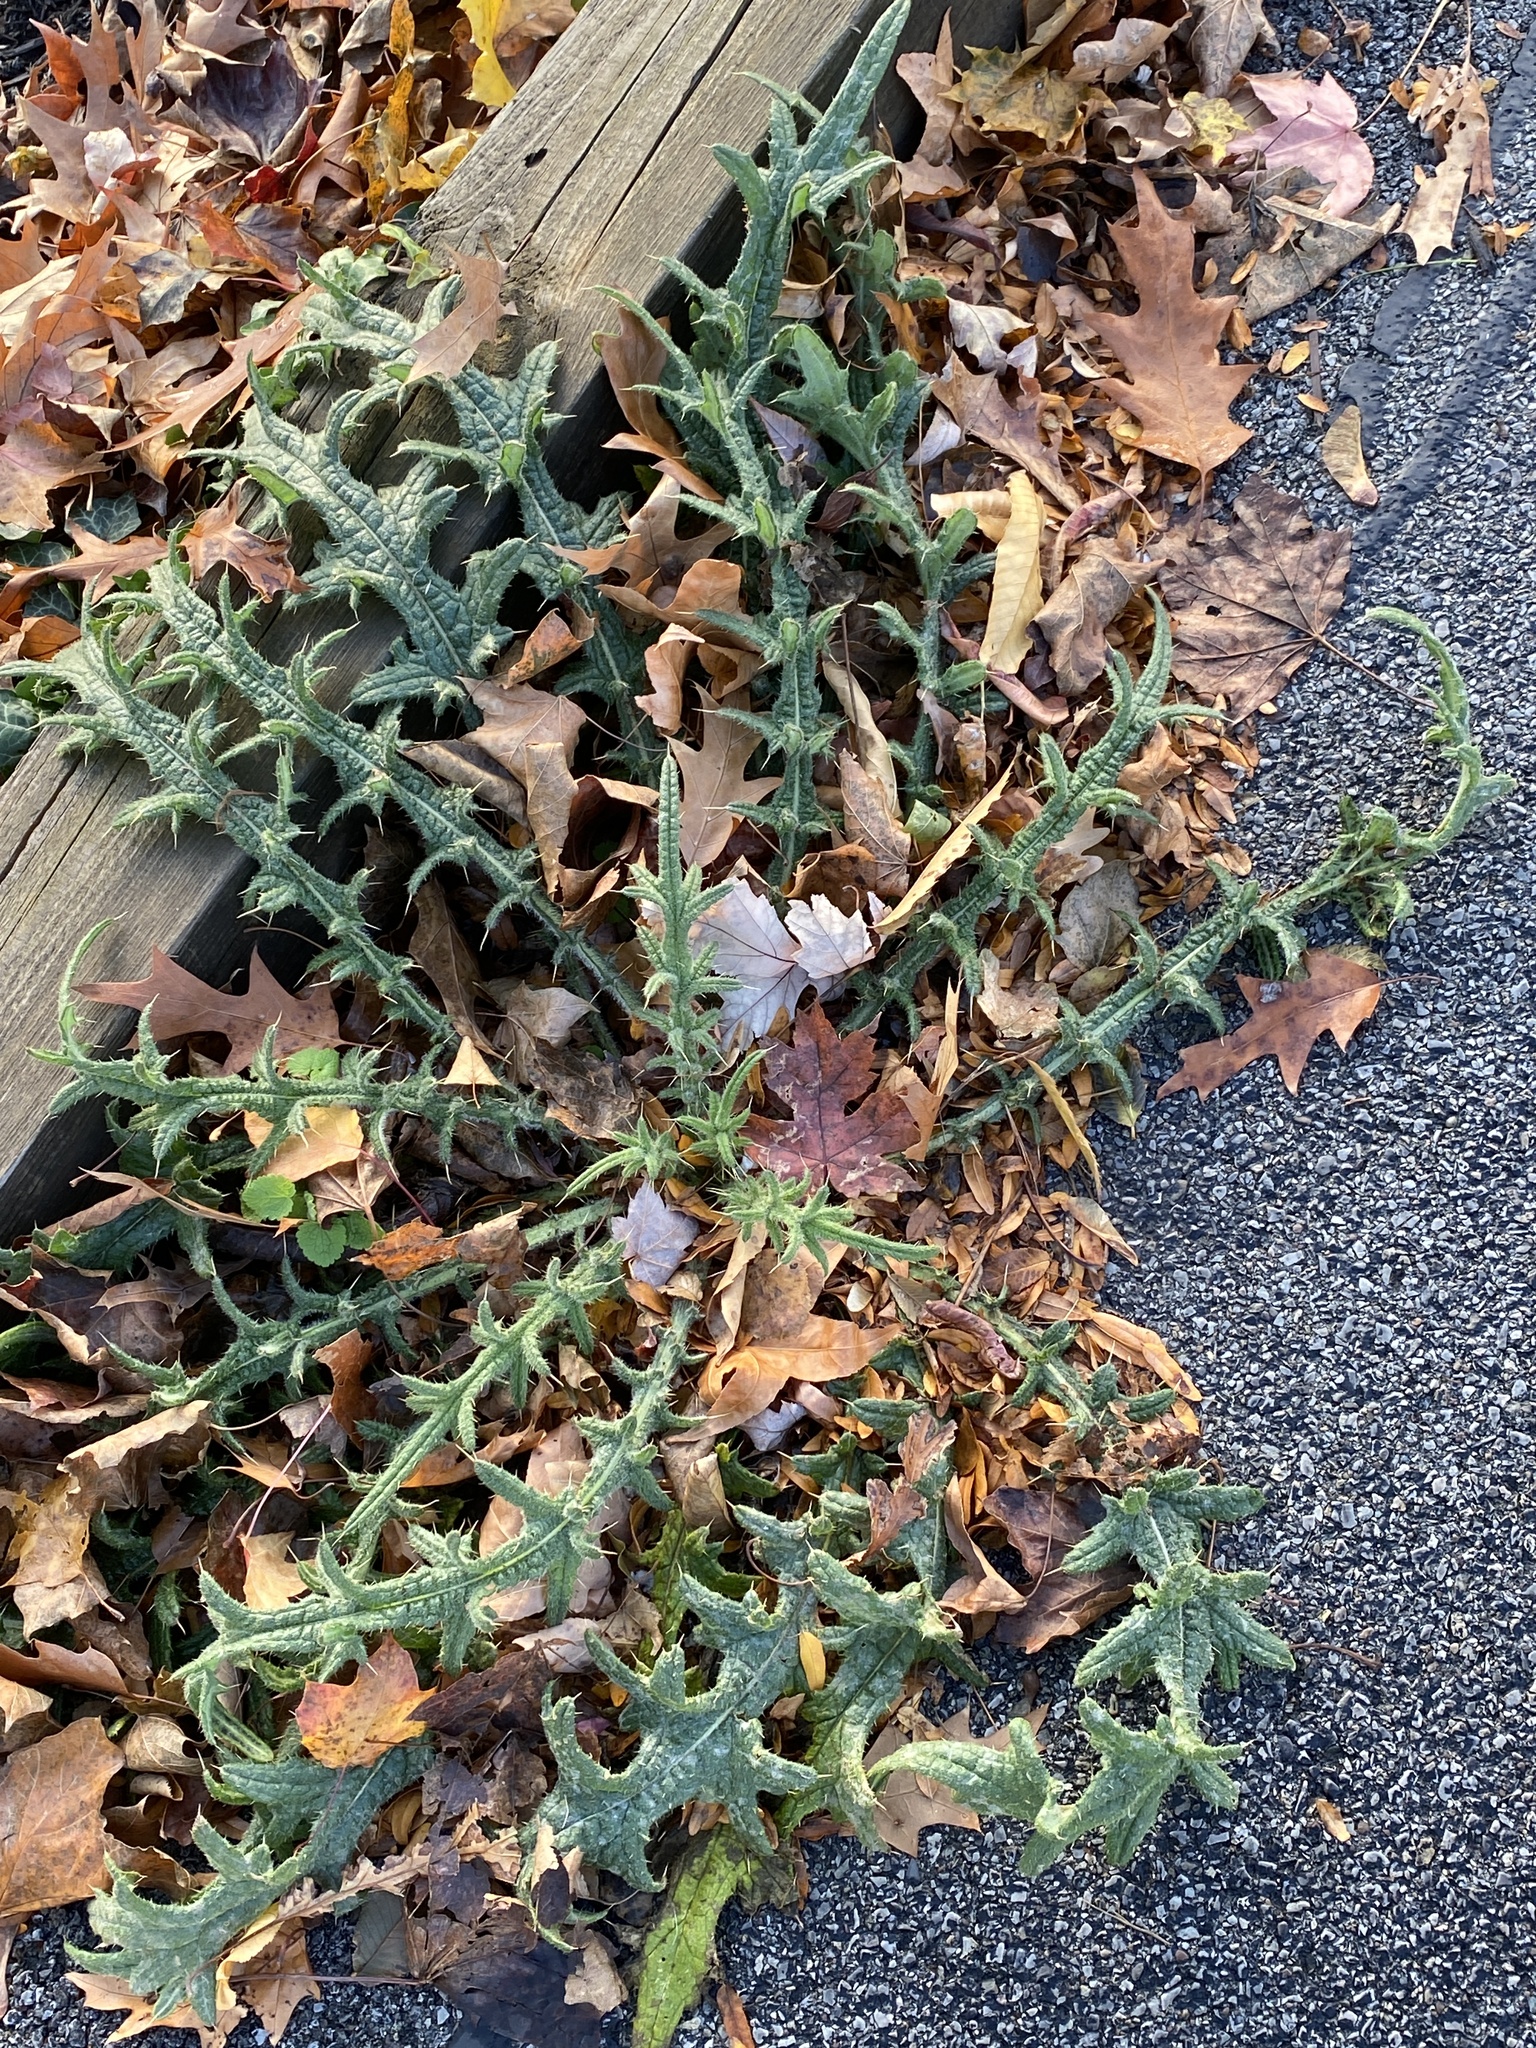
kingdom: Plantae
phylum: Tracheophyta
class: Magnoliopsida
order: Asterales
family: Asteraceae
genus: Cirsium
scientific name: Cirsium vulgare
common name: Bull thistle
